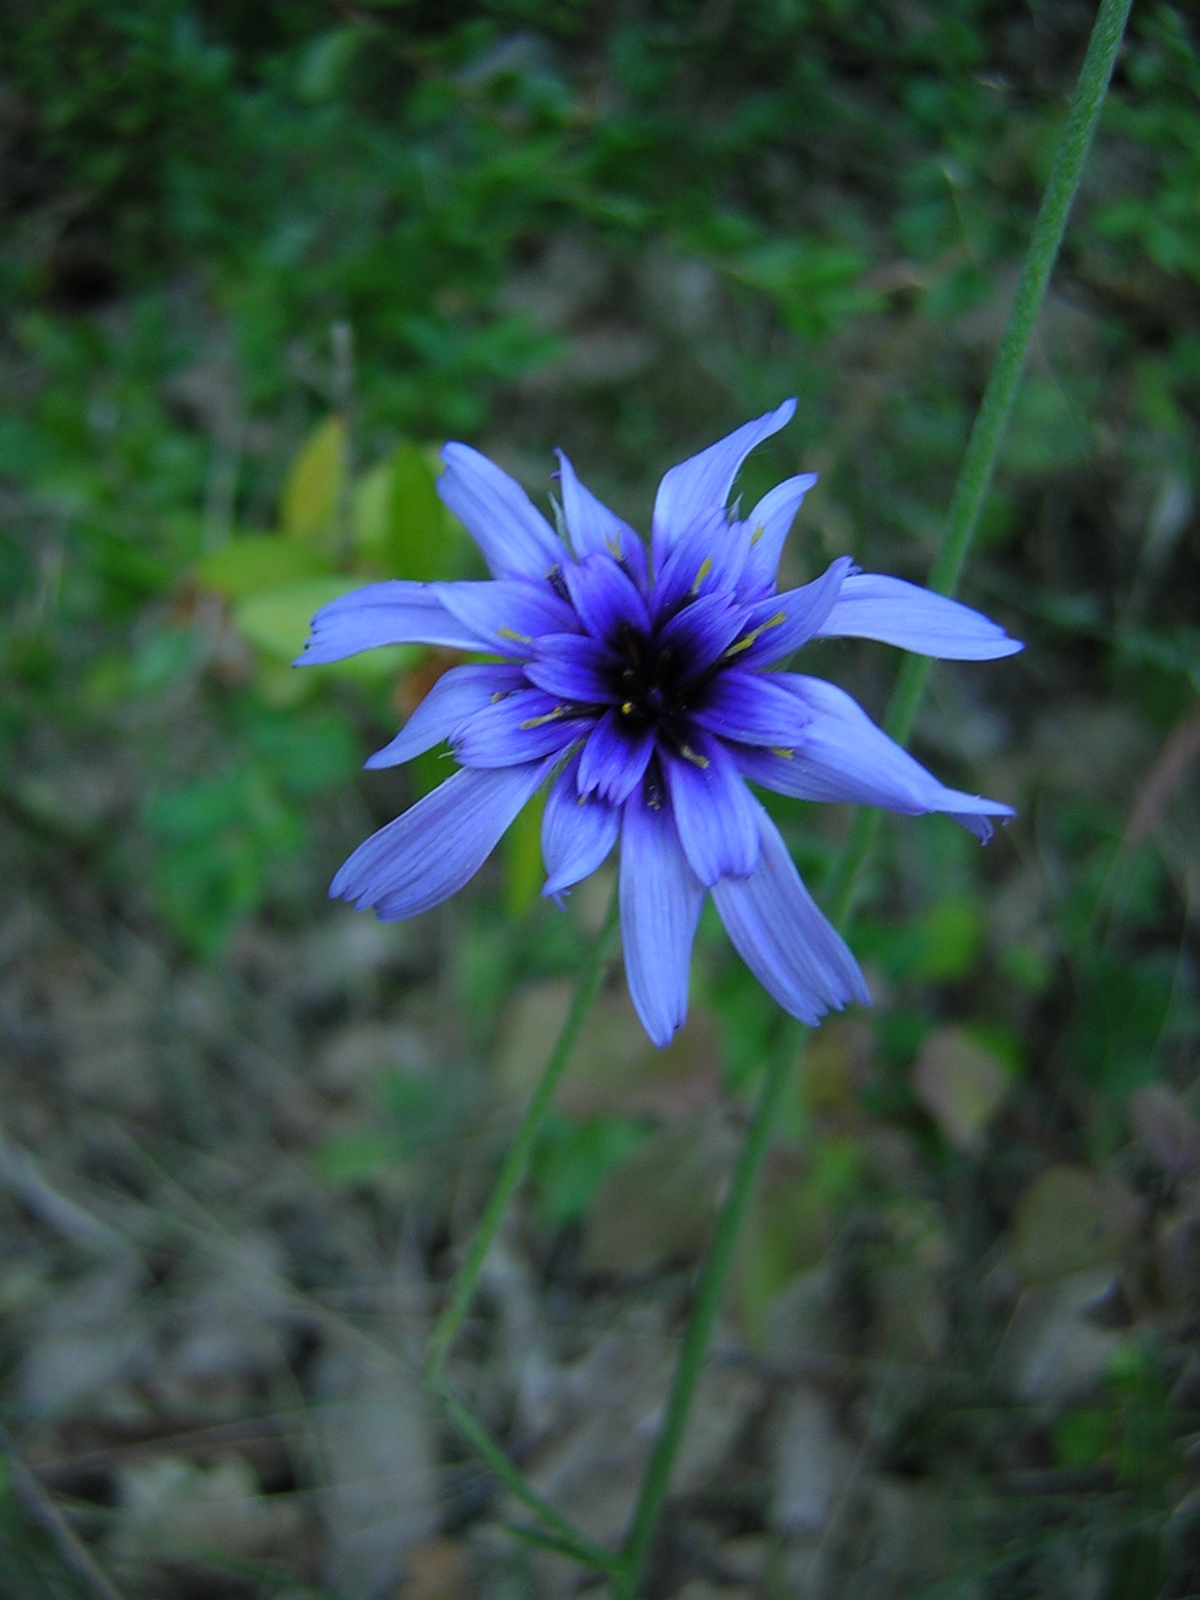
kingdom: Plantae
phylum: Tracheophyta
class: Magnoliopsida
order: Asterales
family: Asteraceae
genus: Catananche
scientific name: Catananche caerulea
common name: Blue cupidone
